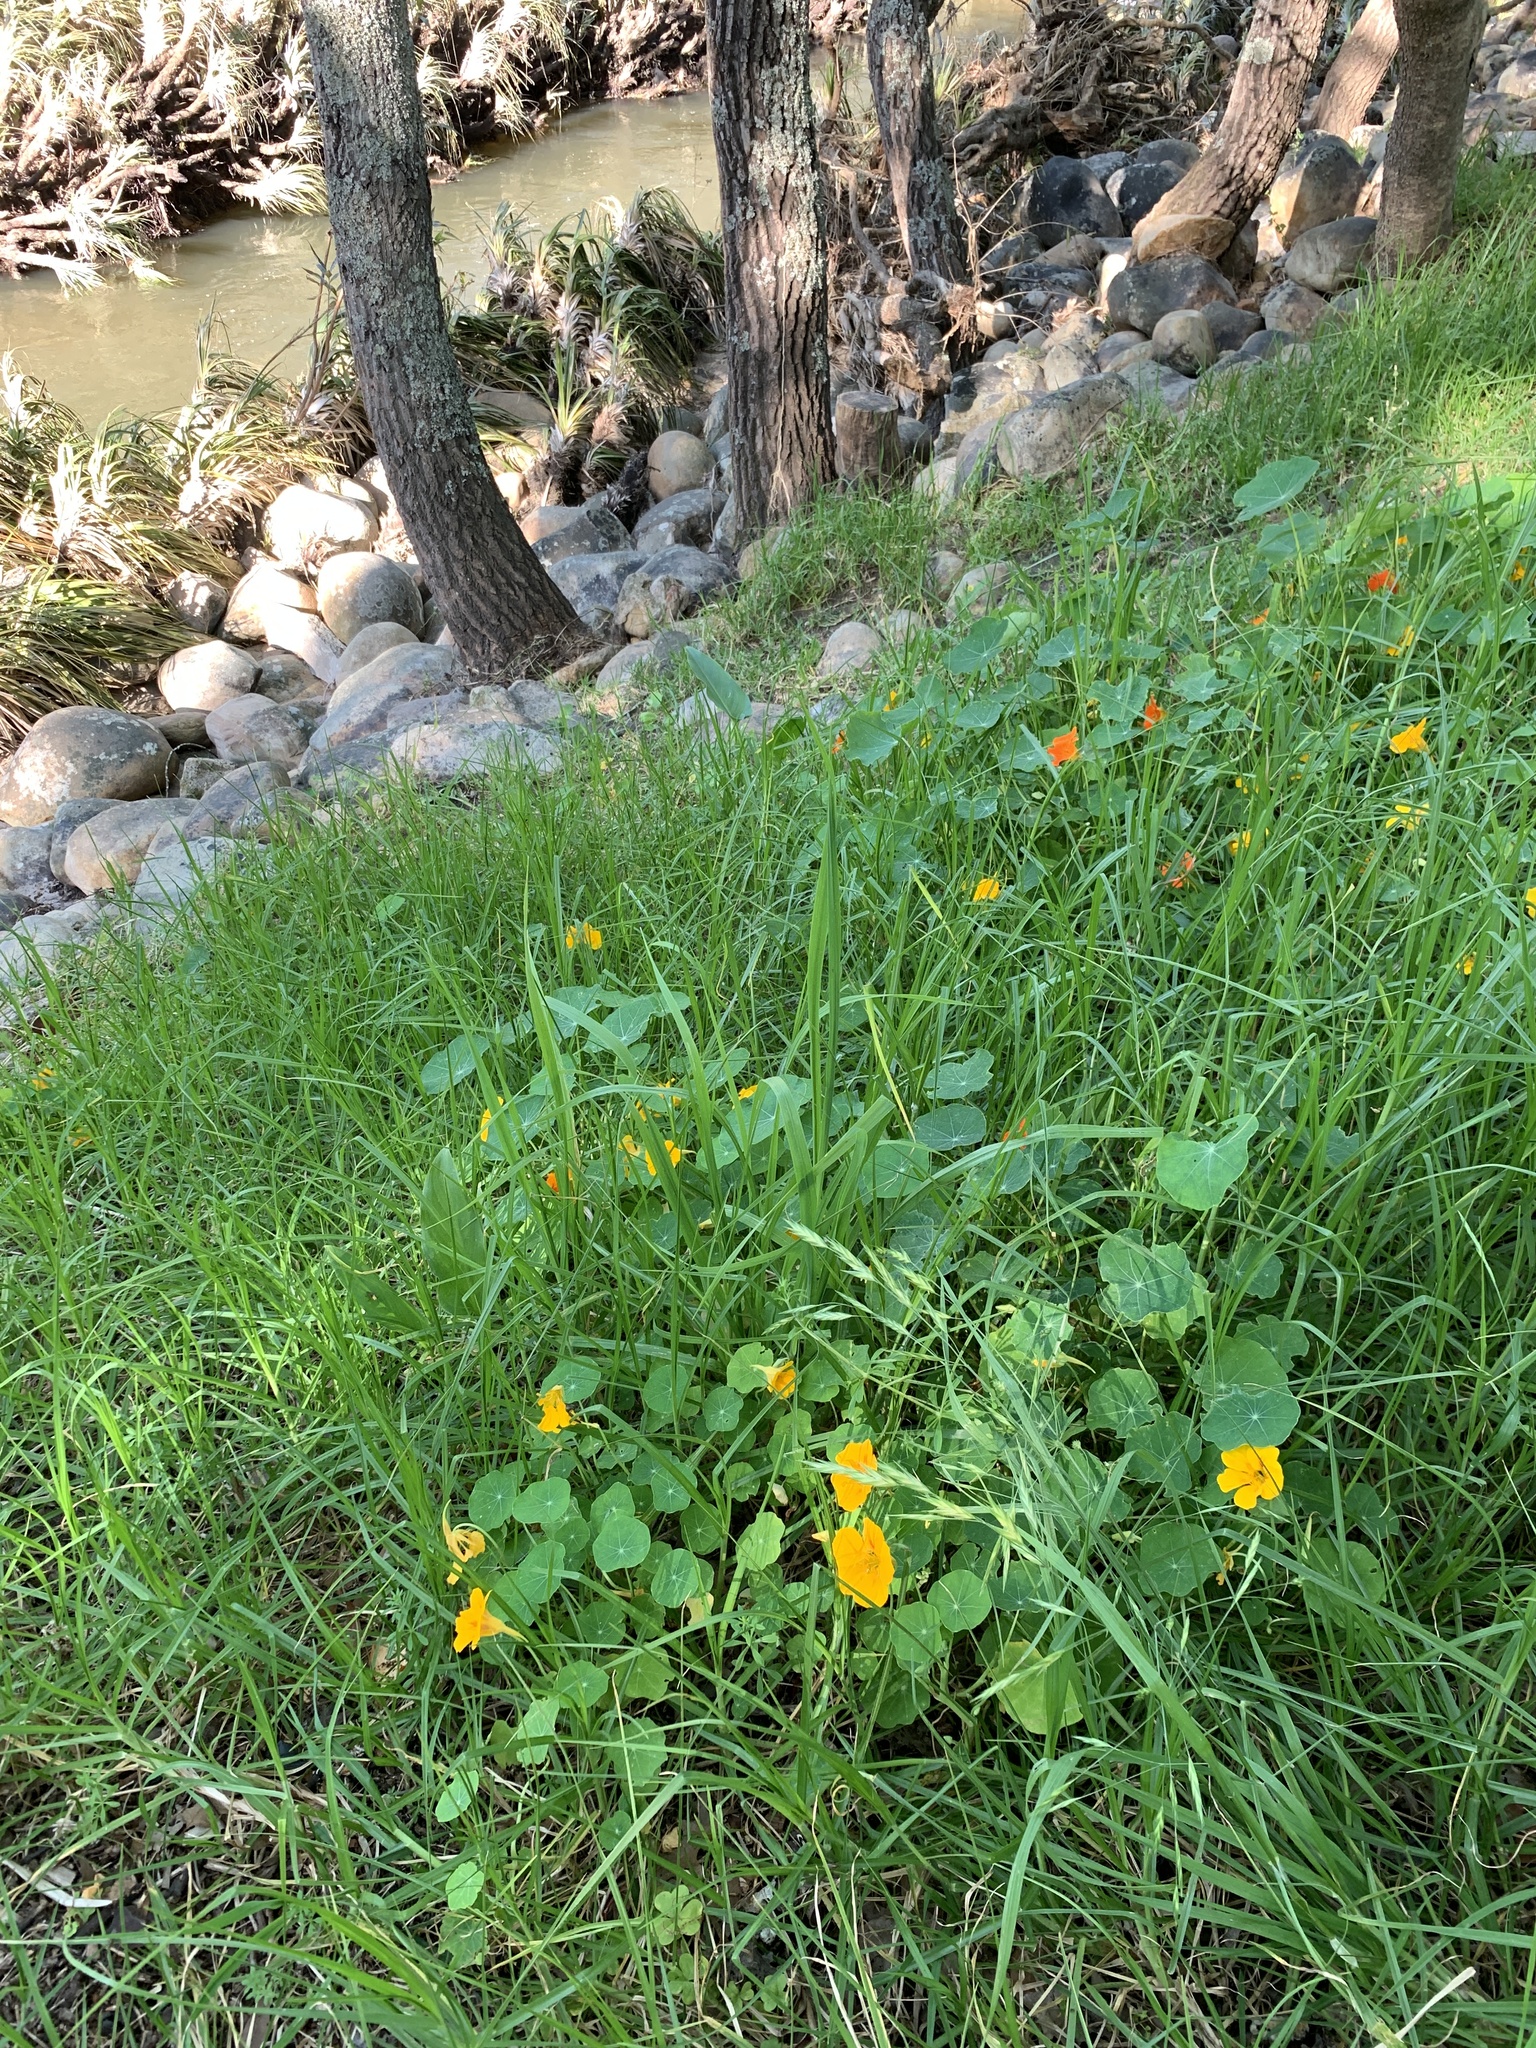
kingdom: Plantae
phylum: Tracheophyta
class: Magnoliopsida
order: Brassicales
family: Tropaeolaceae
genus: Tropaeolum
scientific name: Tropaeolum majus
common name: Nasturtium
